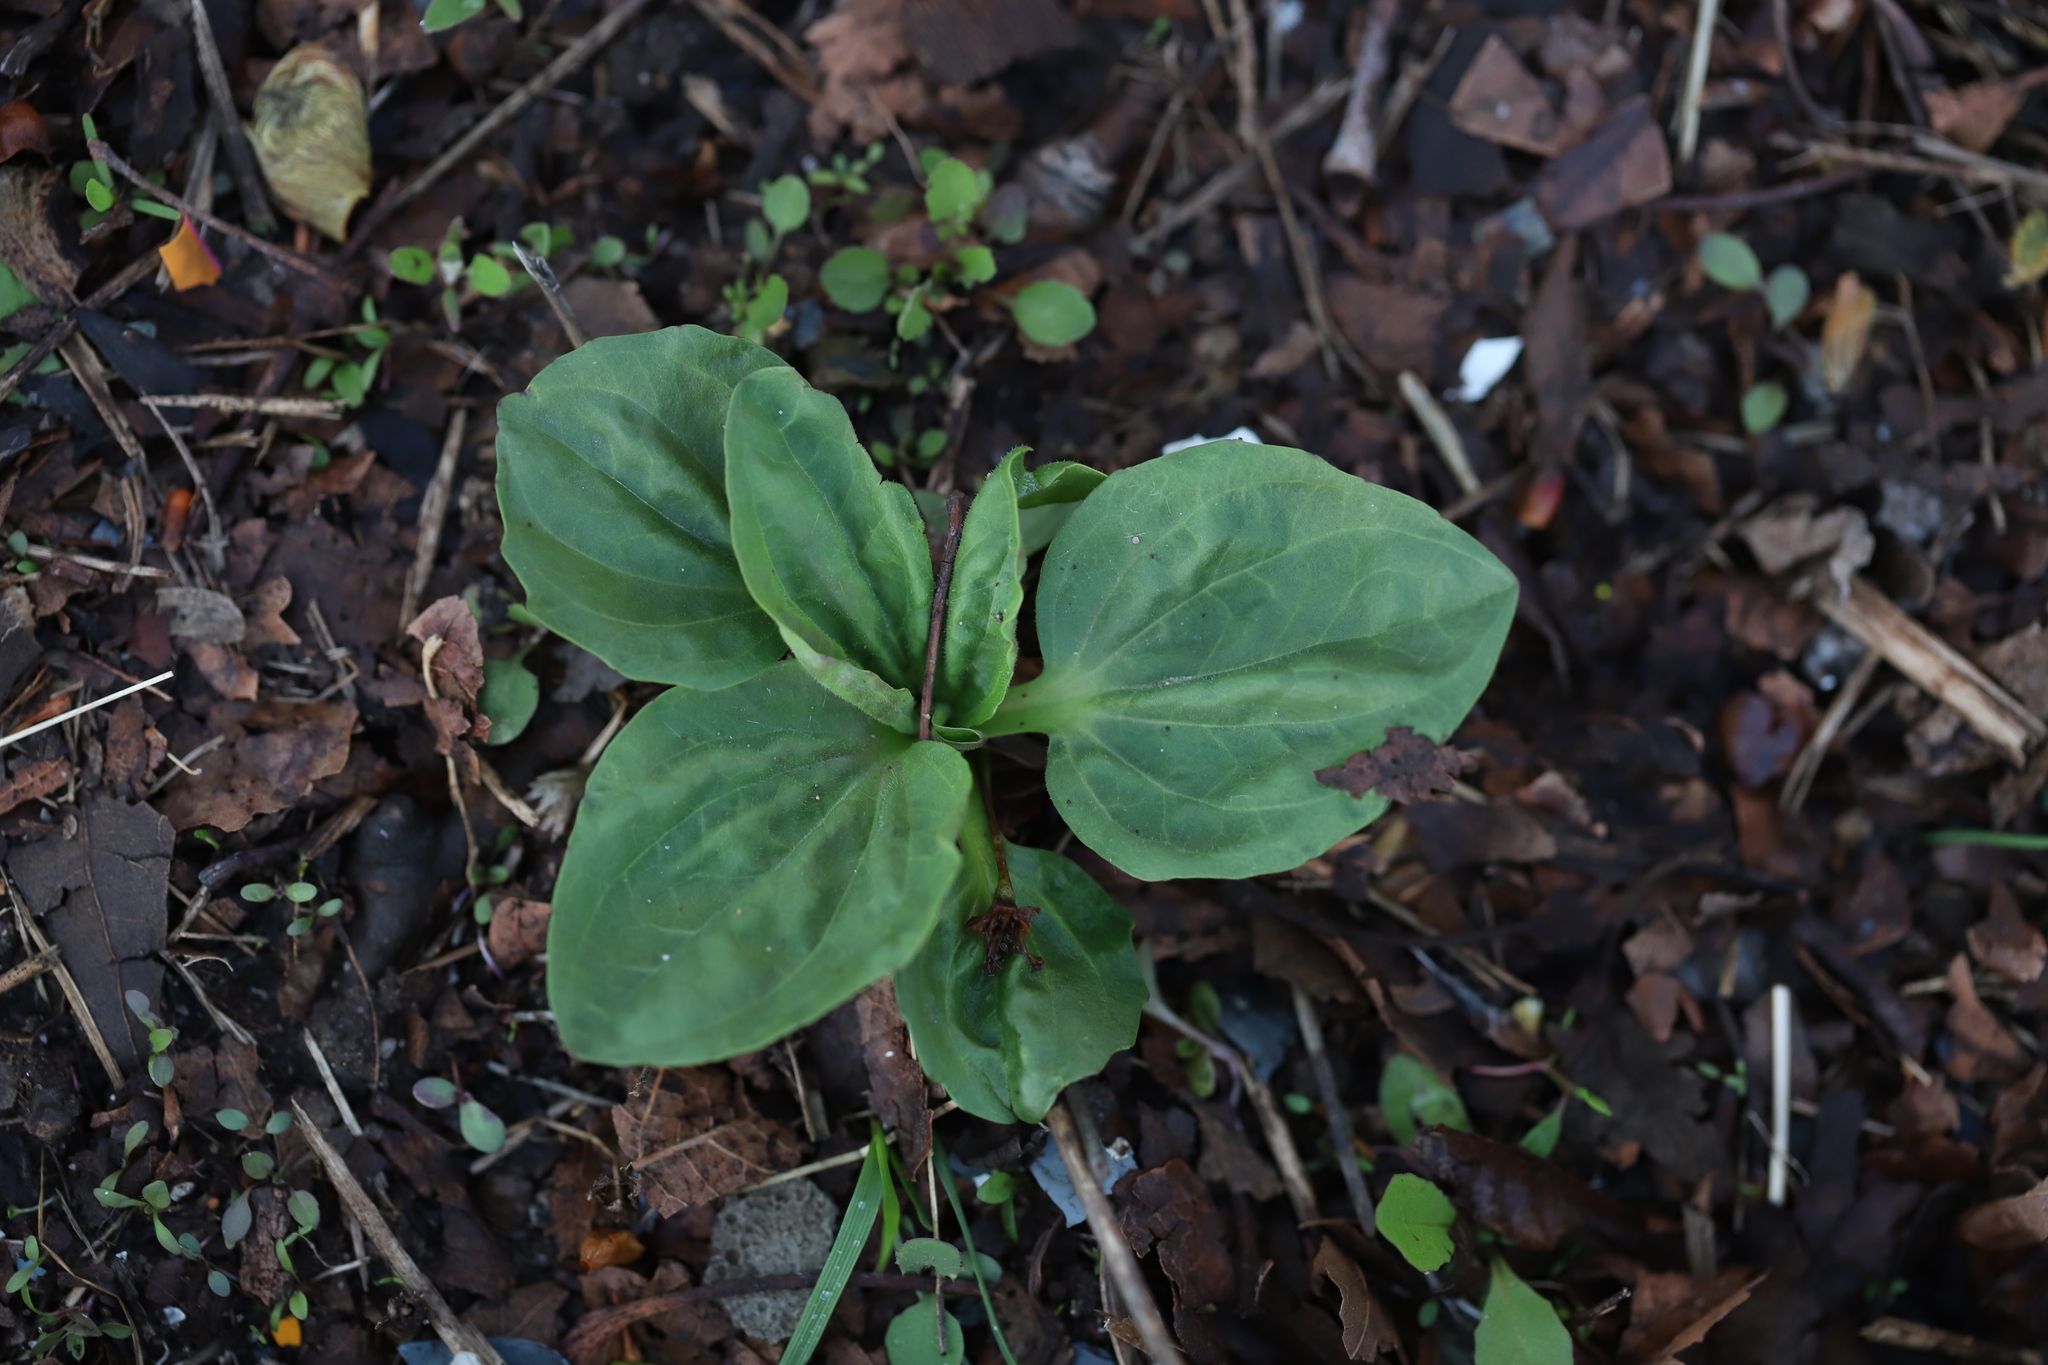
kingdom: Plantae
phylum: Tracheophyta
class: Magnoliopsida
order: Lamiales
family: Plantaginaceae
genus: Plantago
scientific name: Plantago major
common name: Common plantain
